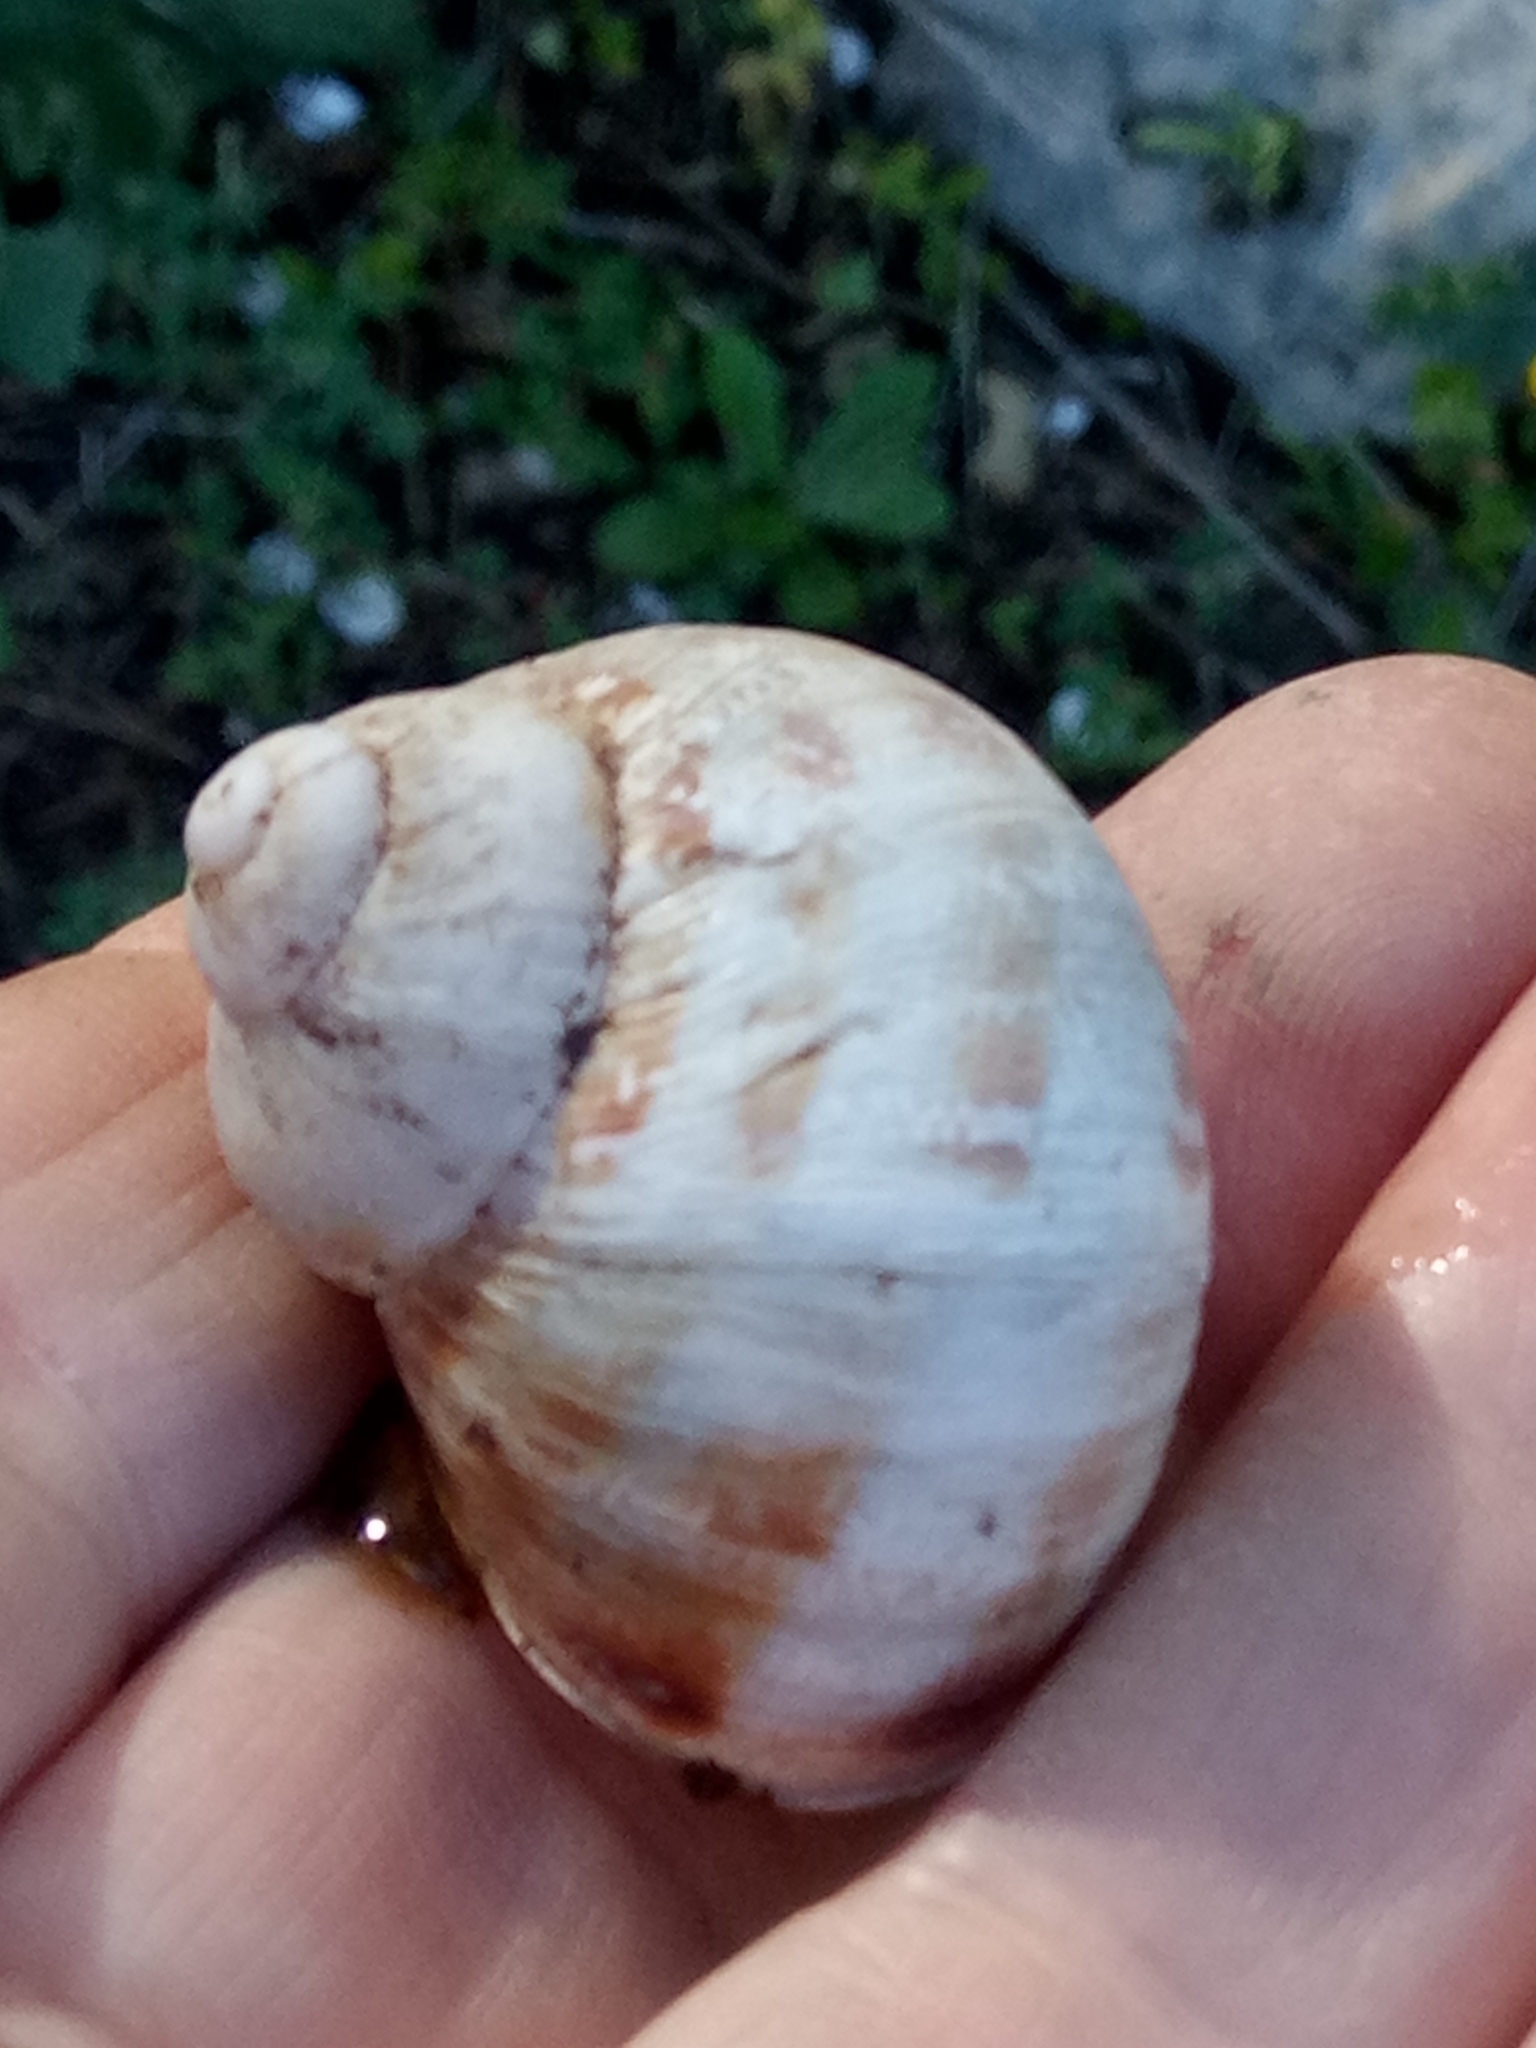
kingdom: Animalia
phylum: Mollusca
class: Gastropoda
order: Stylommatophora
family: Helicidae
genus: Cornu
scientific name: Cornu aspersum
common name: Brown garden snail
